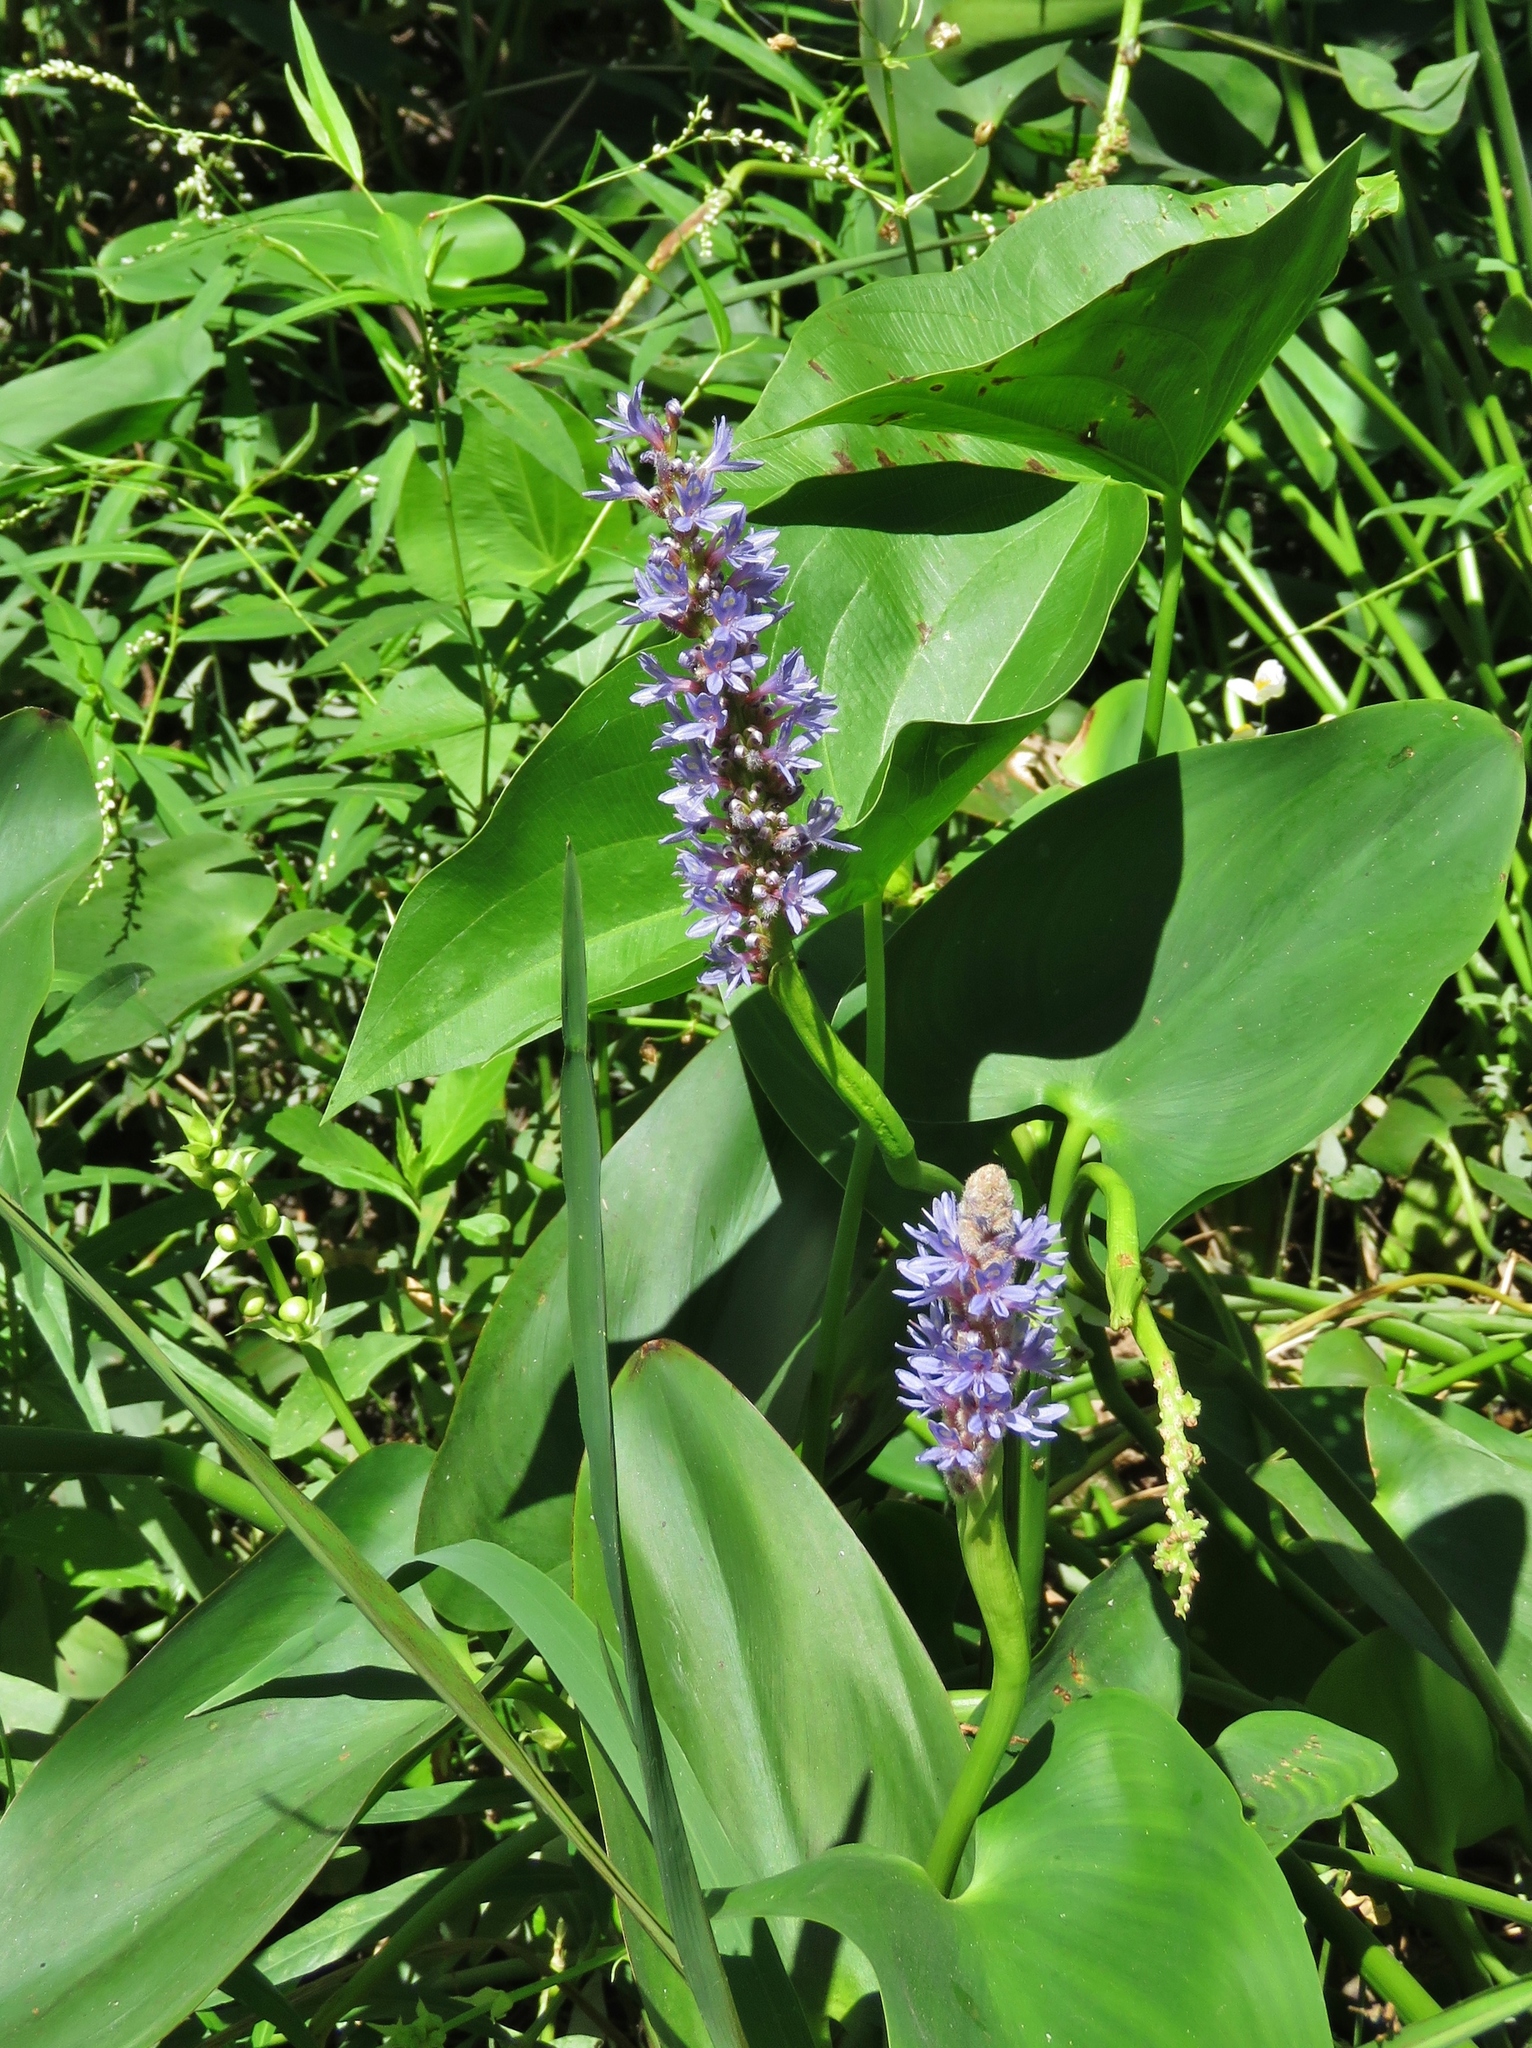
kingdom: Plantae
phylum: Tracheophyta
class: Liliopsida
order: Commelinales
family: Pontederiaceae
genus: Pontederia
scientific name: Pontederia cordata
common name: Pickerelweed
